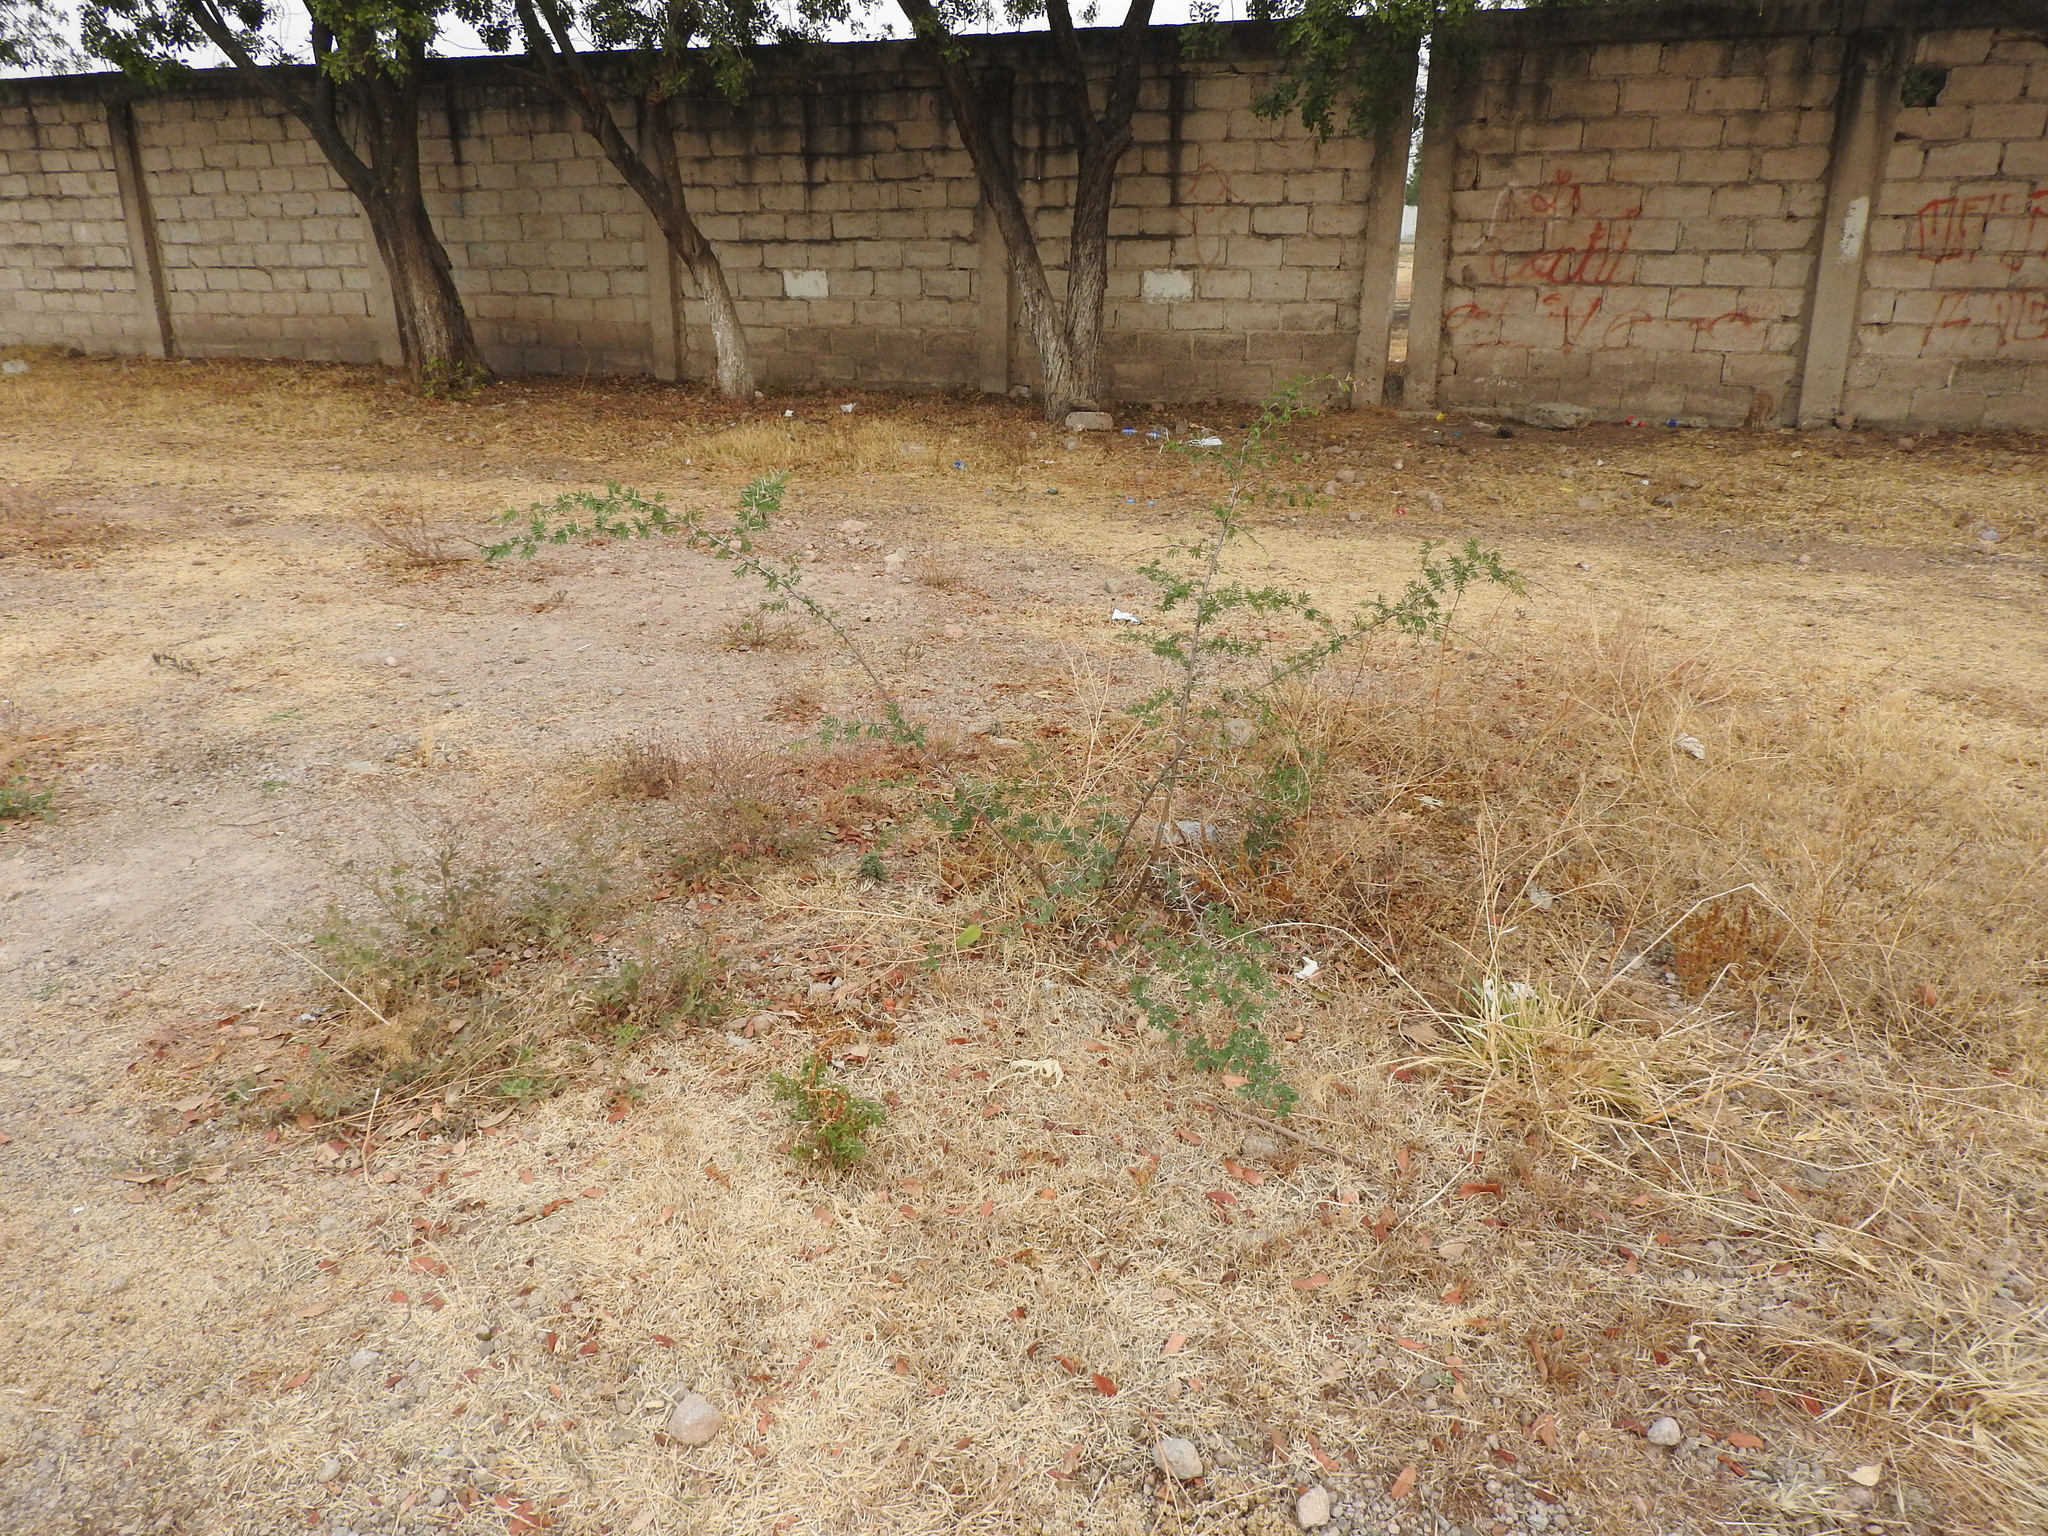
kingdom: Plantae
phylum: Tracheophyta
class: Magnoliopsida
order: Fabales
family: Fabaceae
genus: Vachellia
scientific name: Vachellia farnesiana
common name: Sweet acacia
